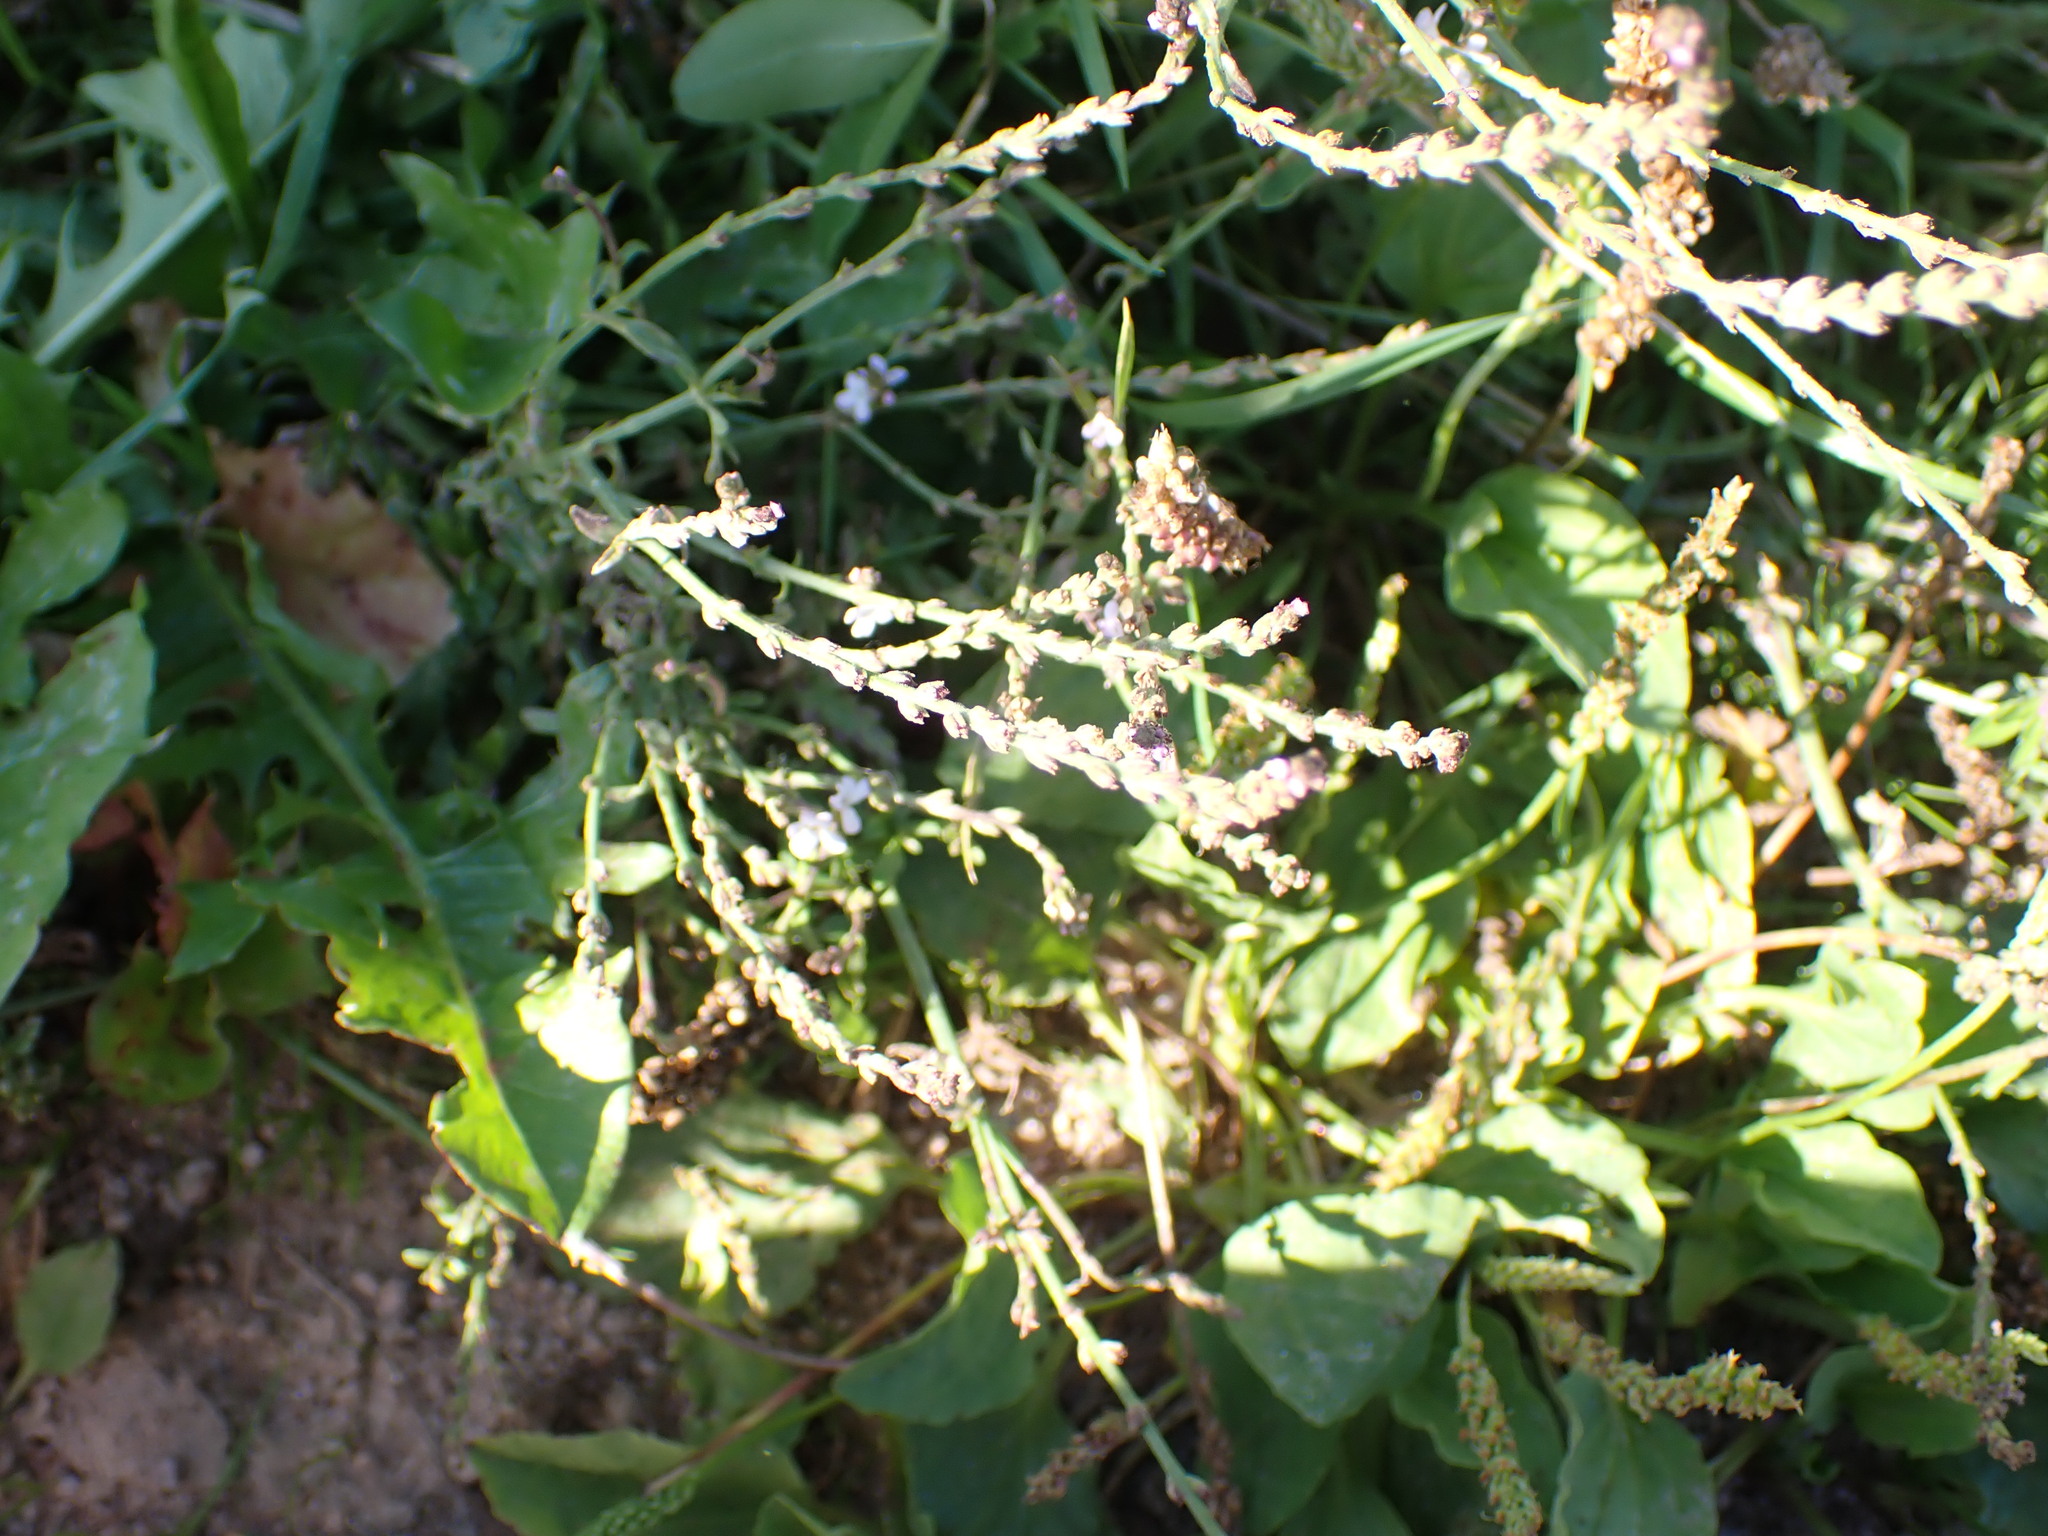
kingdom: Plantae
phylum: Tracheophyta
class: Magnoliopsida
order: Lamiales
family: Verbenaceae
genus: Verbena
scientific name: Verbena officinalis
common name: Vervain
